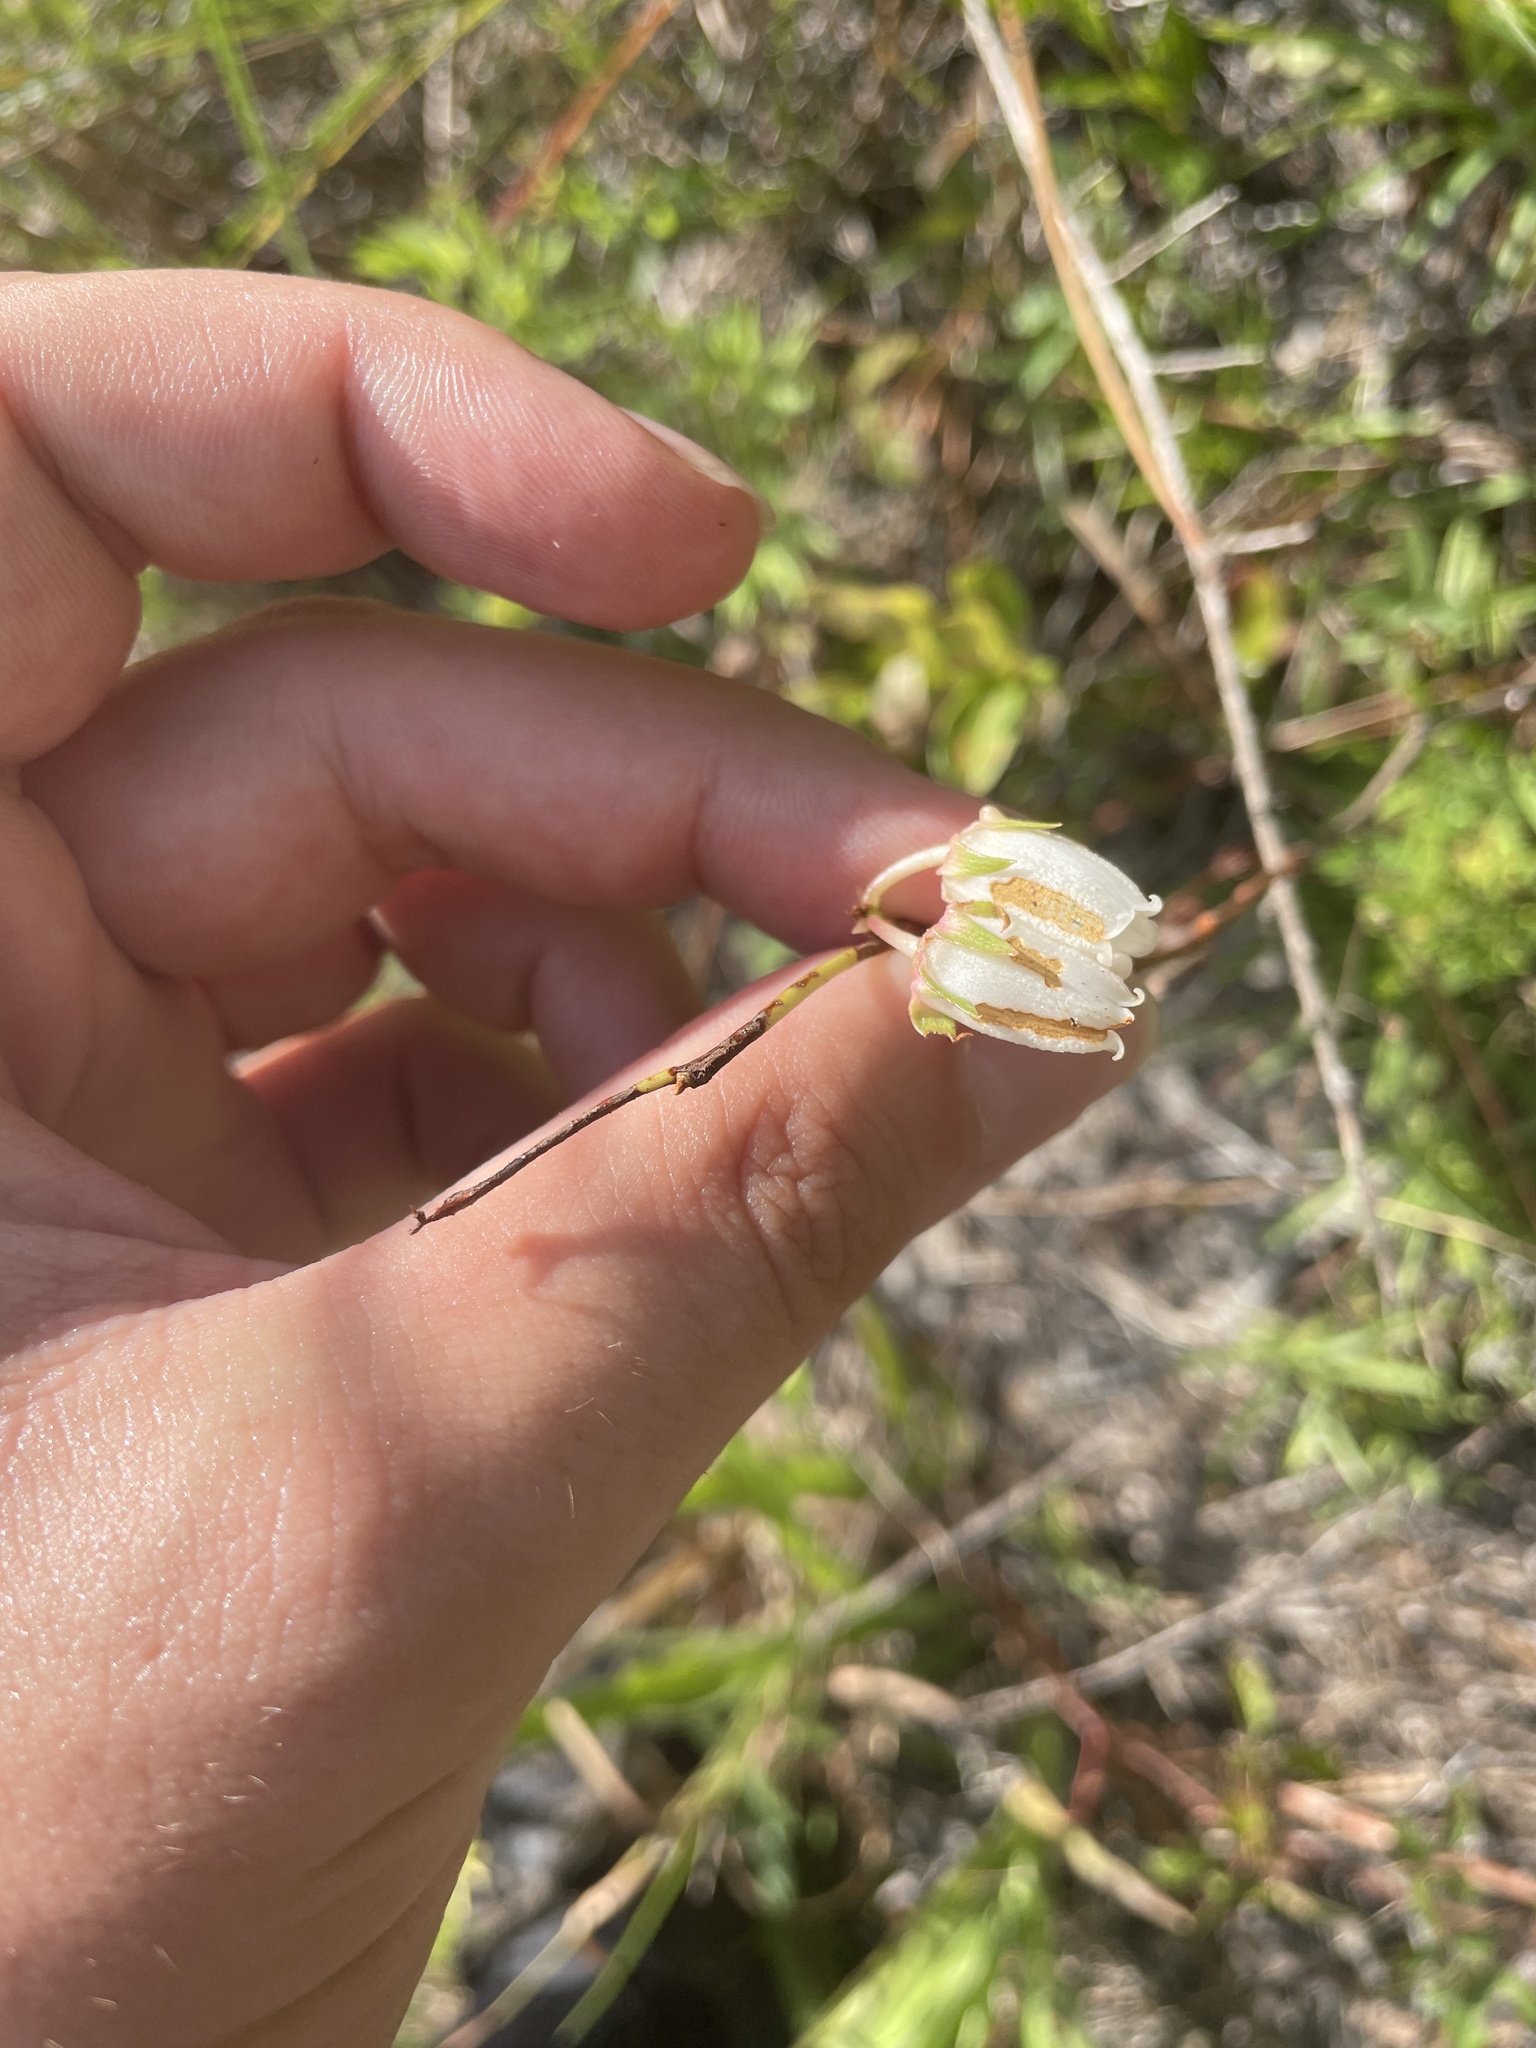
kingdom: Plantae
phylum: Tracheophyta
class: Magnoliopsida
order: Ericales
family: Ericaceae
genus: Lyonia
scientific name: Lyonia mariana
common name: Staggerbush
